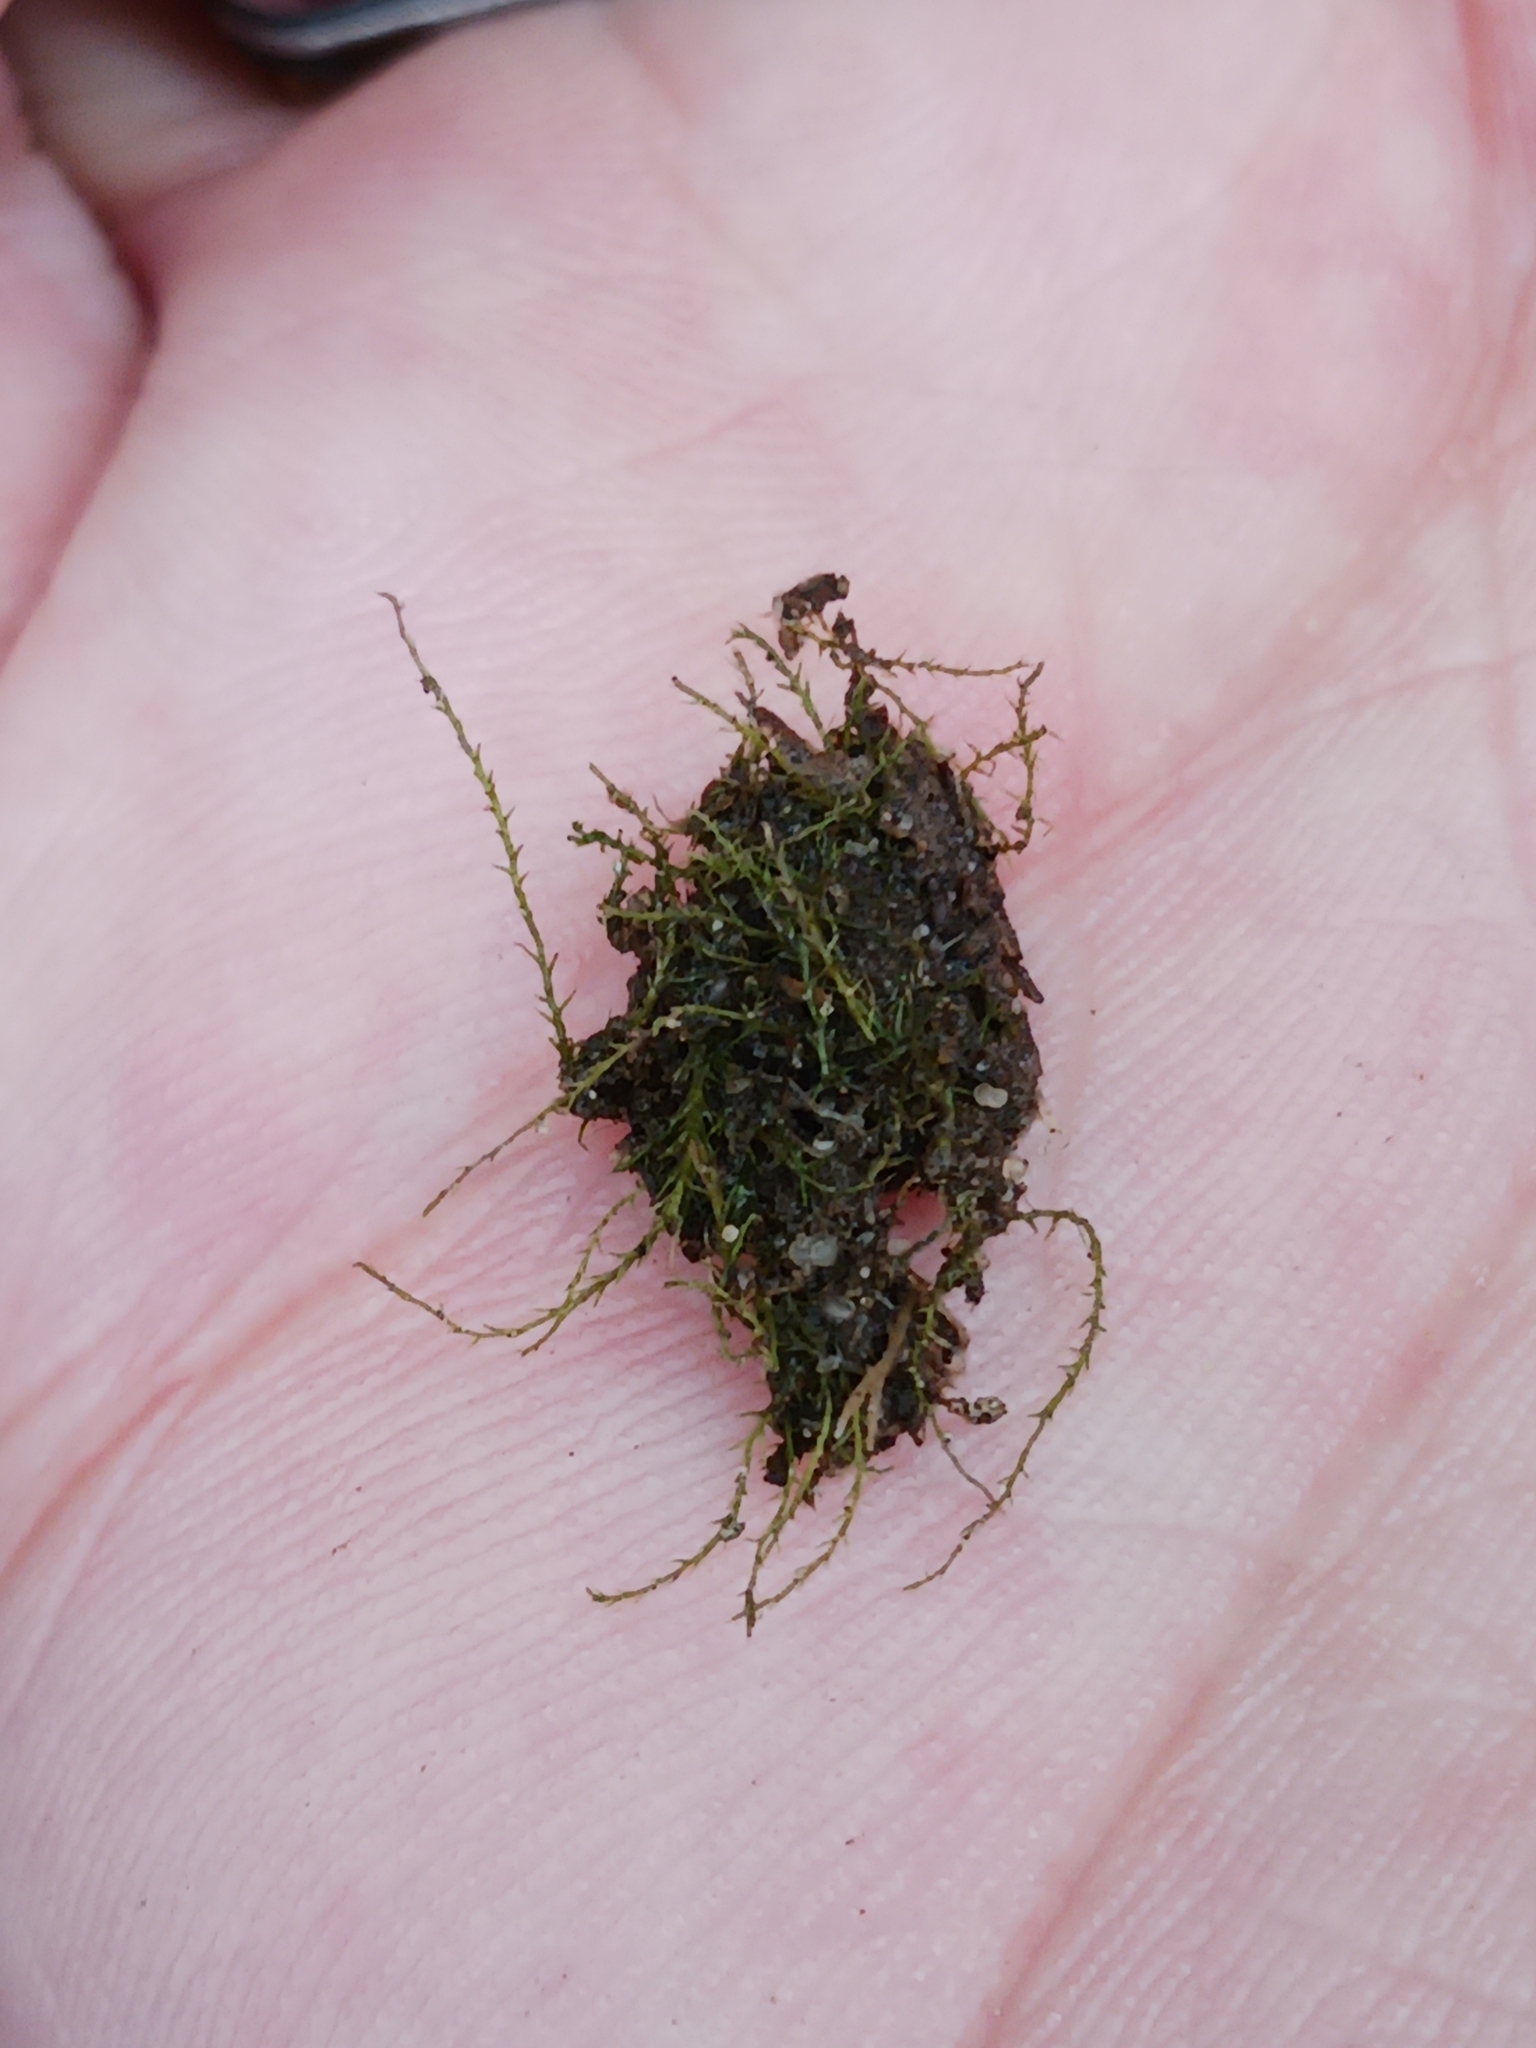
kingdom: Plantae
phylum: Bryophyta
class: Bryopsida
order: Archidiales
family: Archidiaceae
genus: Archidium
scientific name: Archidium alternifolium
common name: Clay earth-moss
